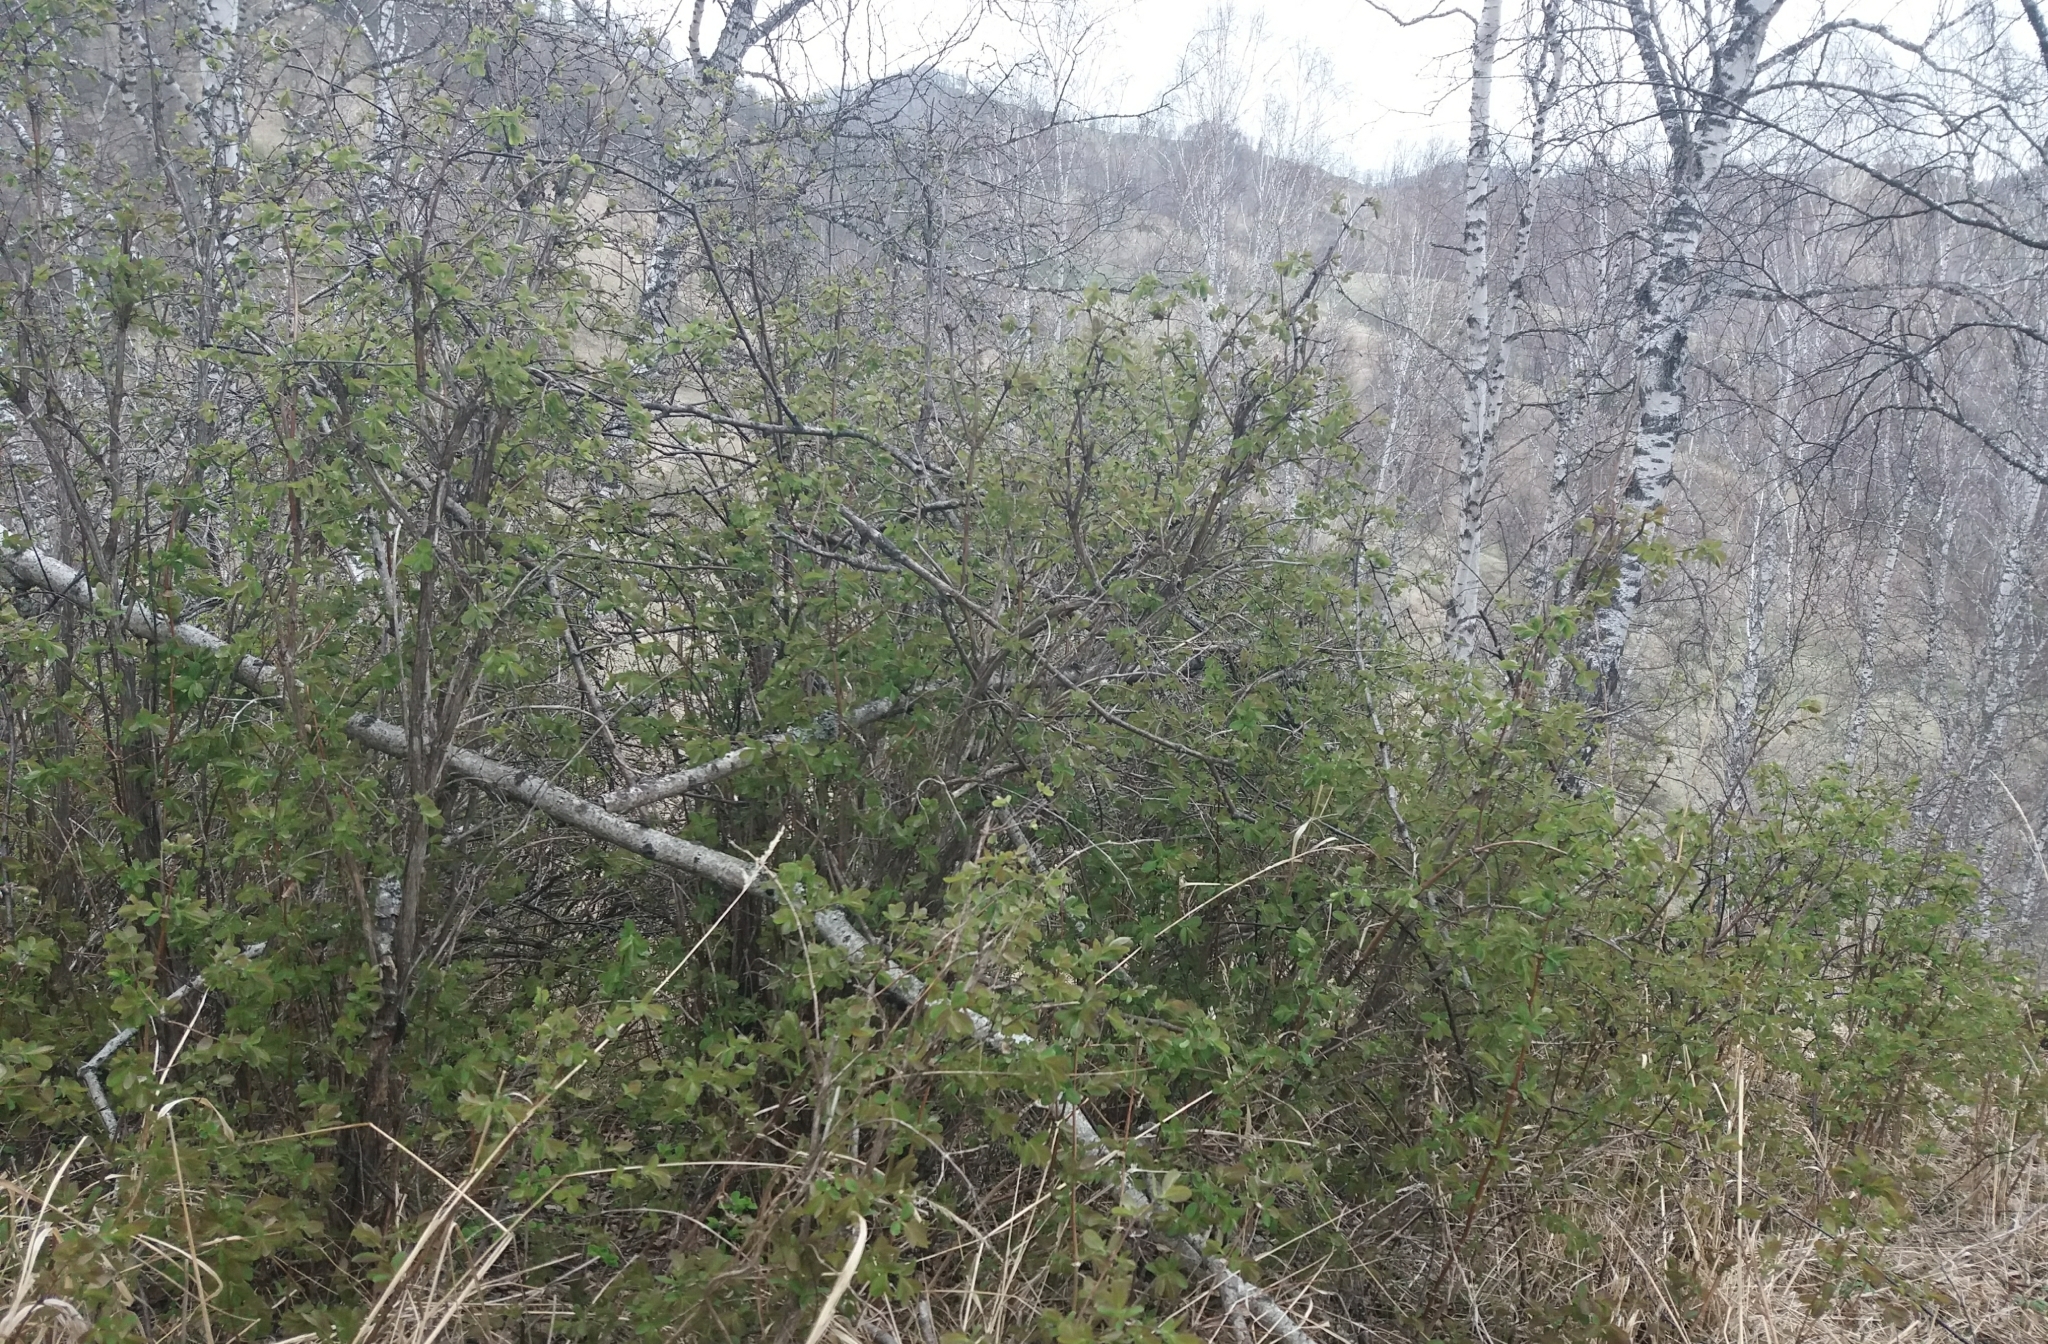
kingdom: Plantae
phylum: Tracheophyta
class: Magnoliopsida
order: Dipsacales
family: Caprifoliaceae
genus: Lonicera
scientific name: Lonicera caerulea
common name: Blue honeysuckle
